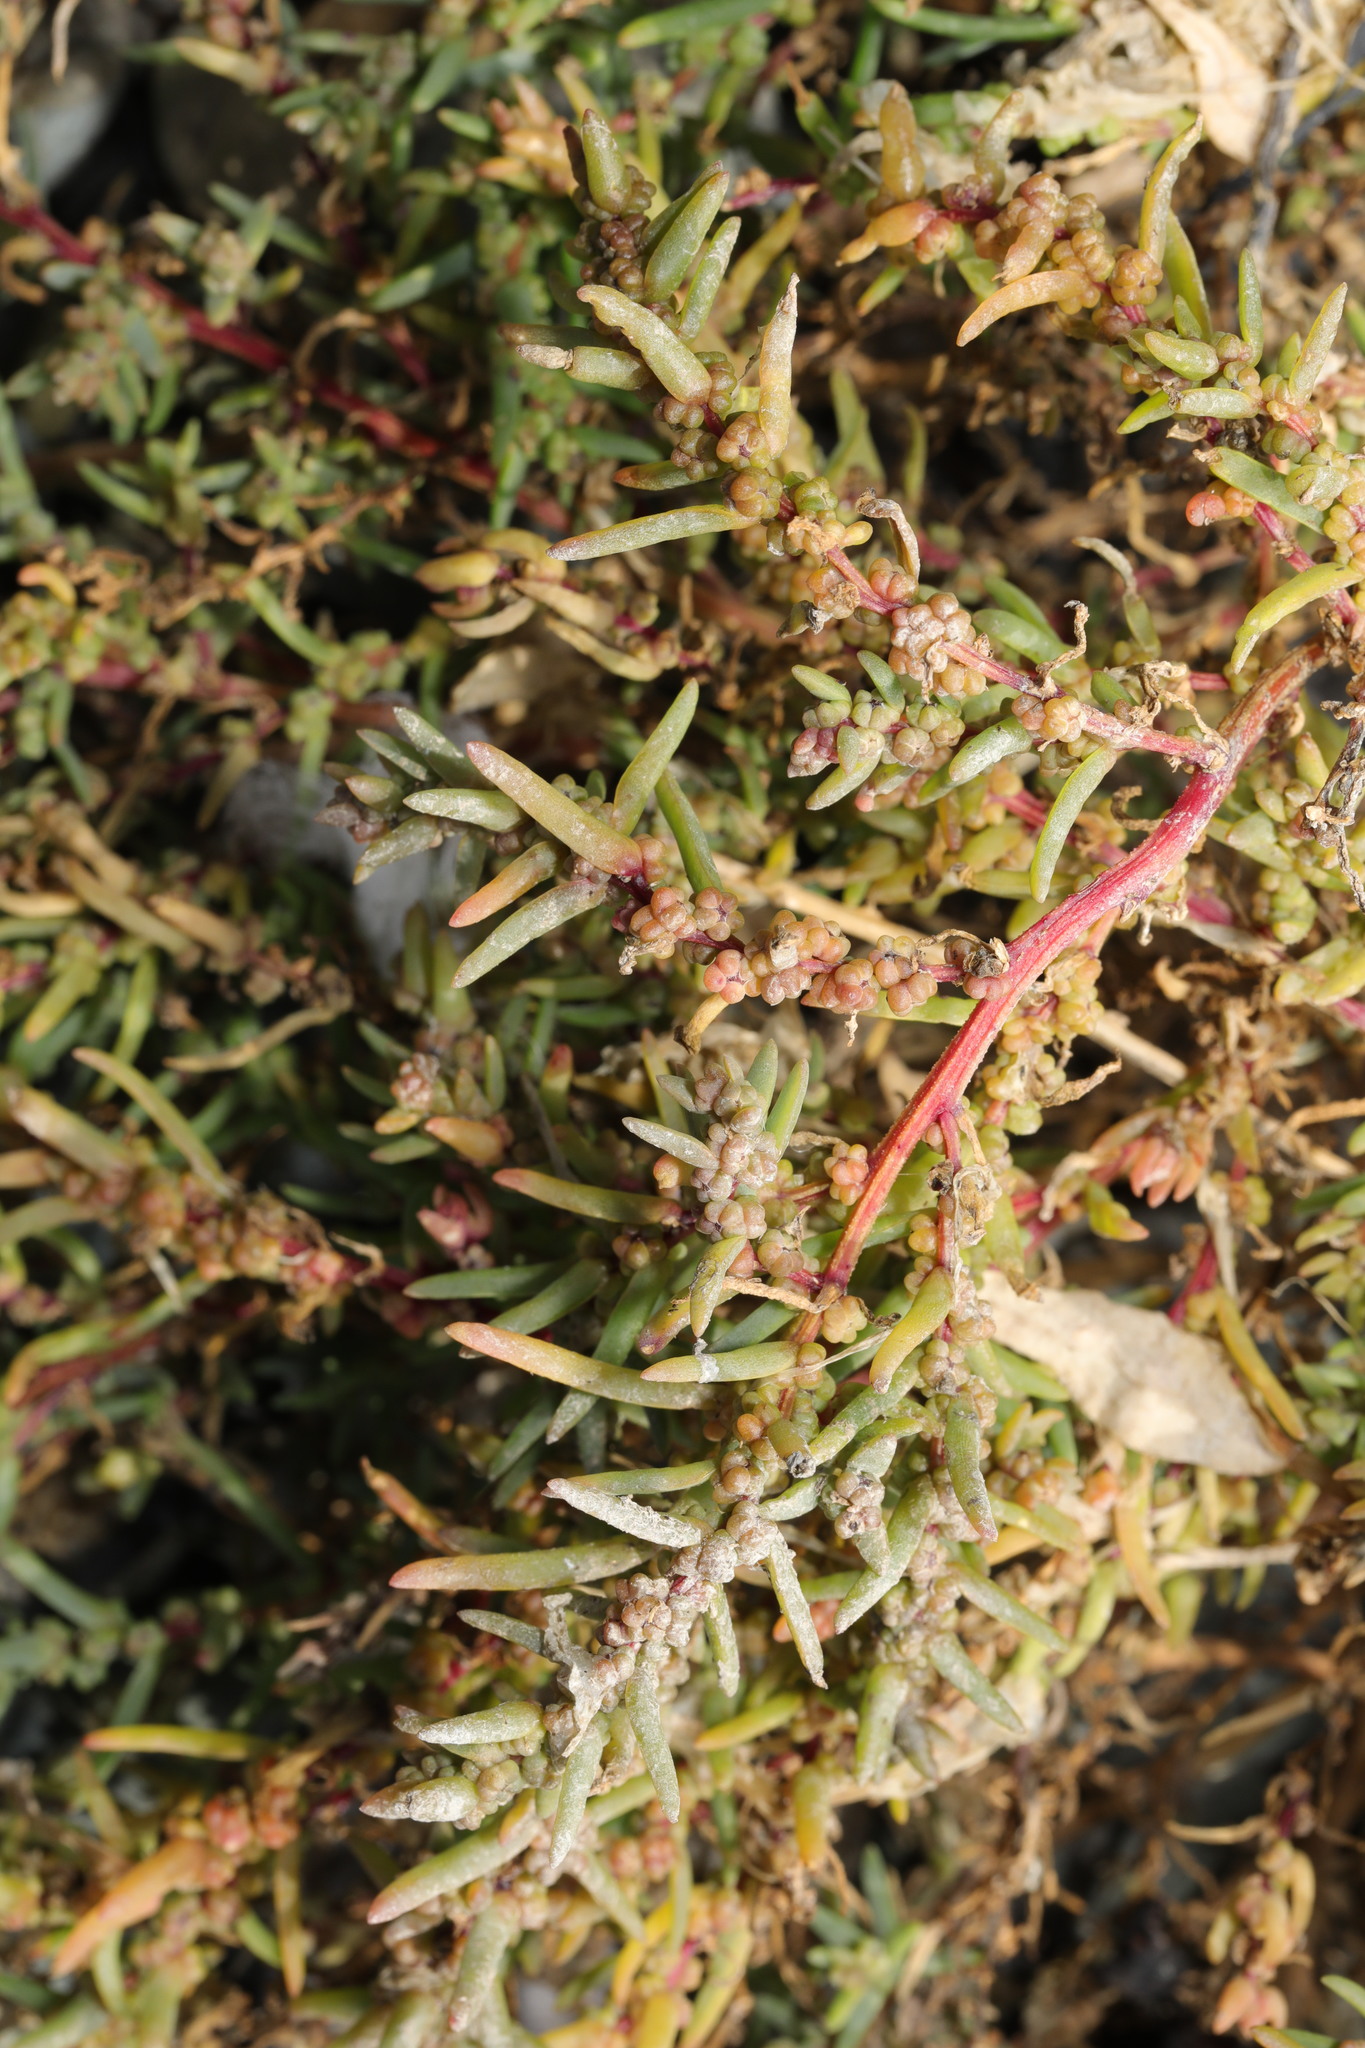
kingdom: Plantae
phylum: Tracheophyta
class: Magnoliopsida
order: Caryophyllales
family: Amaranthaceae
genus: Suaeda
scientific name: Suaeda maritima
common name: Annual sea-blite
